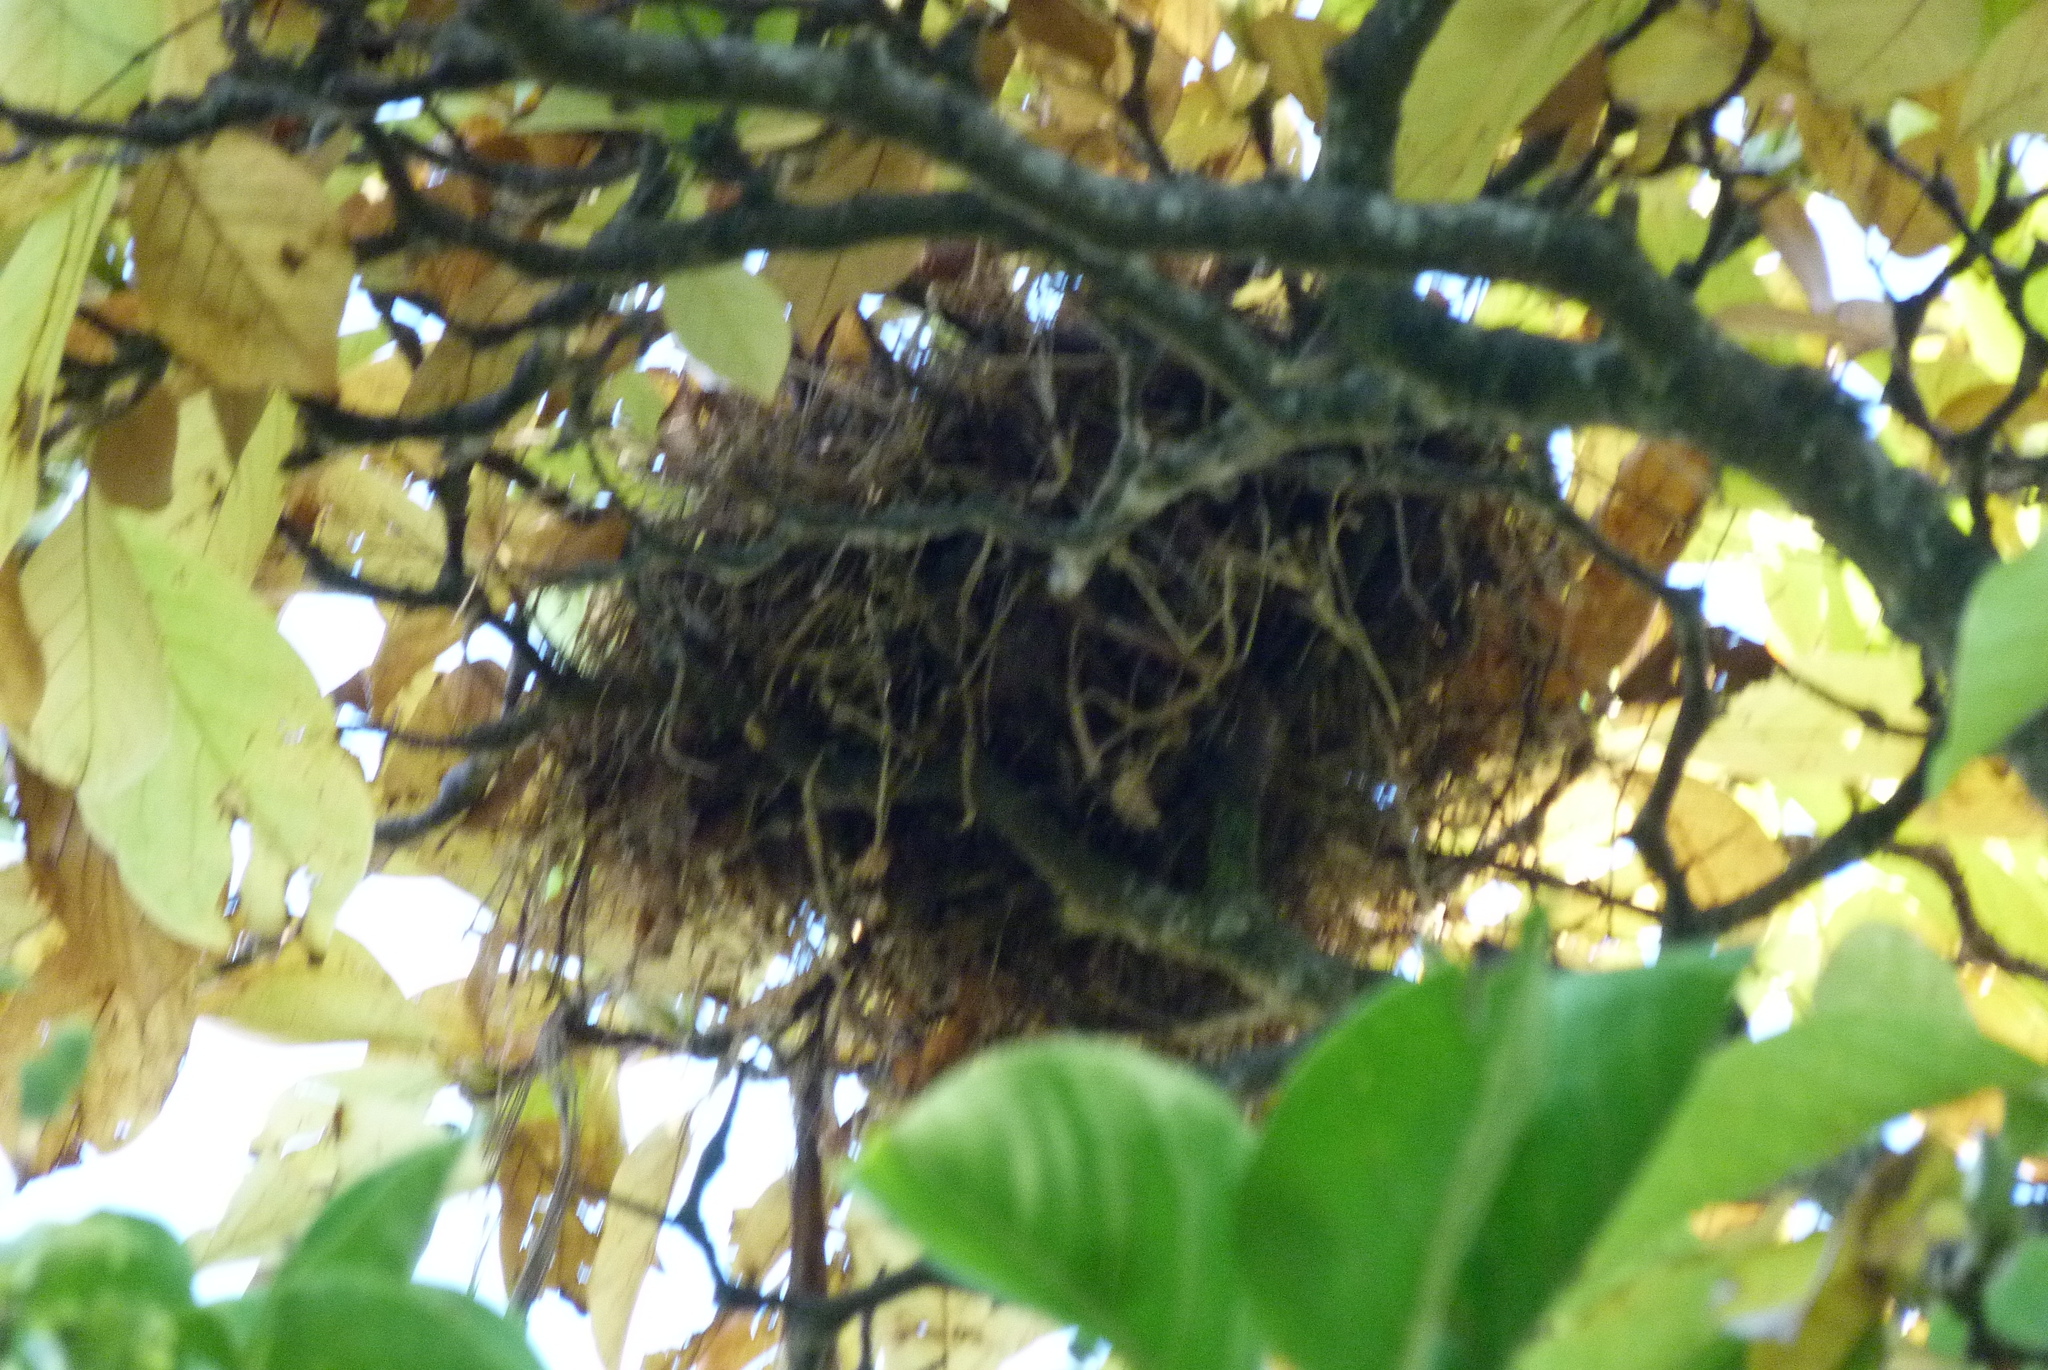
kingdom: Animalia
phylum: Chordata
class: Aves
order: Passeriformes
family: Turdidae
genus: Turdus
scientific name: Turdus merula
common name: Common blackbird
